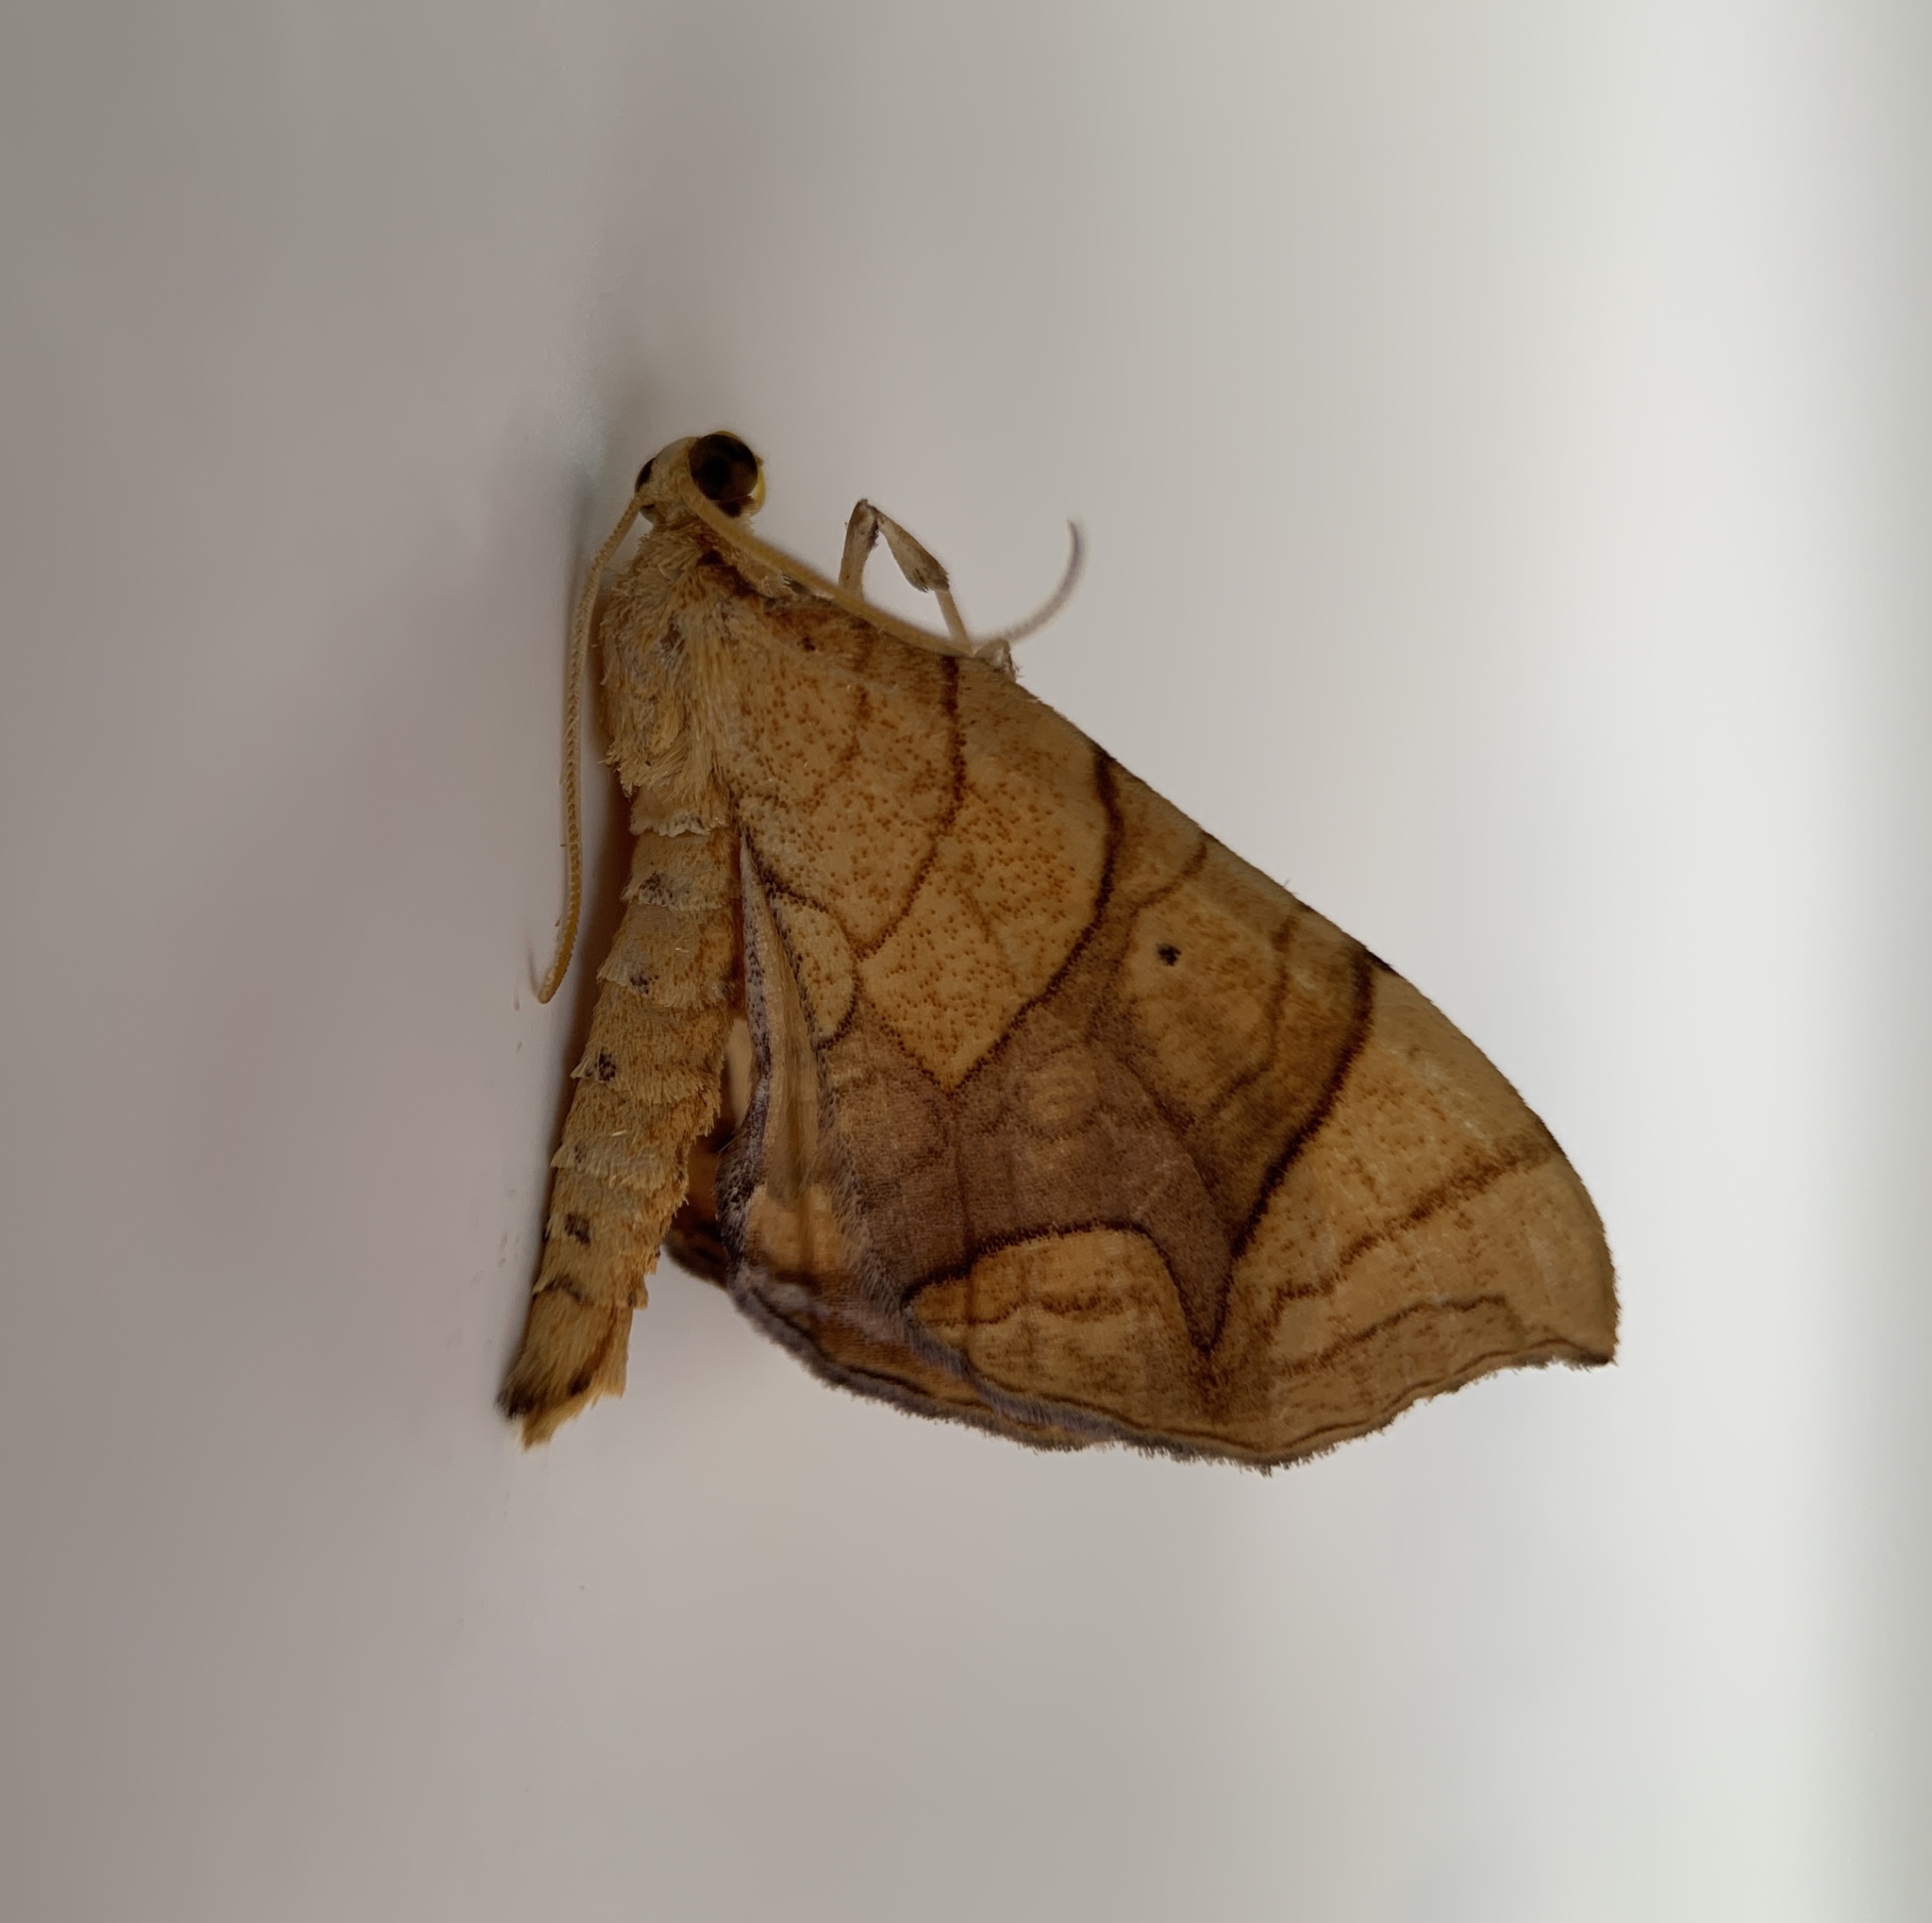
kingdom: Animalia
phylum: Arthropoda
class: Insecta
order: Lepidoptera
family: Geometridae
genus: Eulithis
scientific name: Eulithis gracilineata
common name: Greater grapevine looper moth
